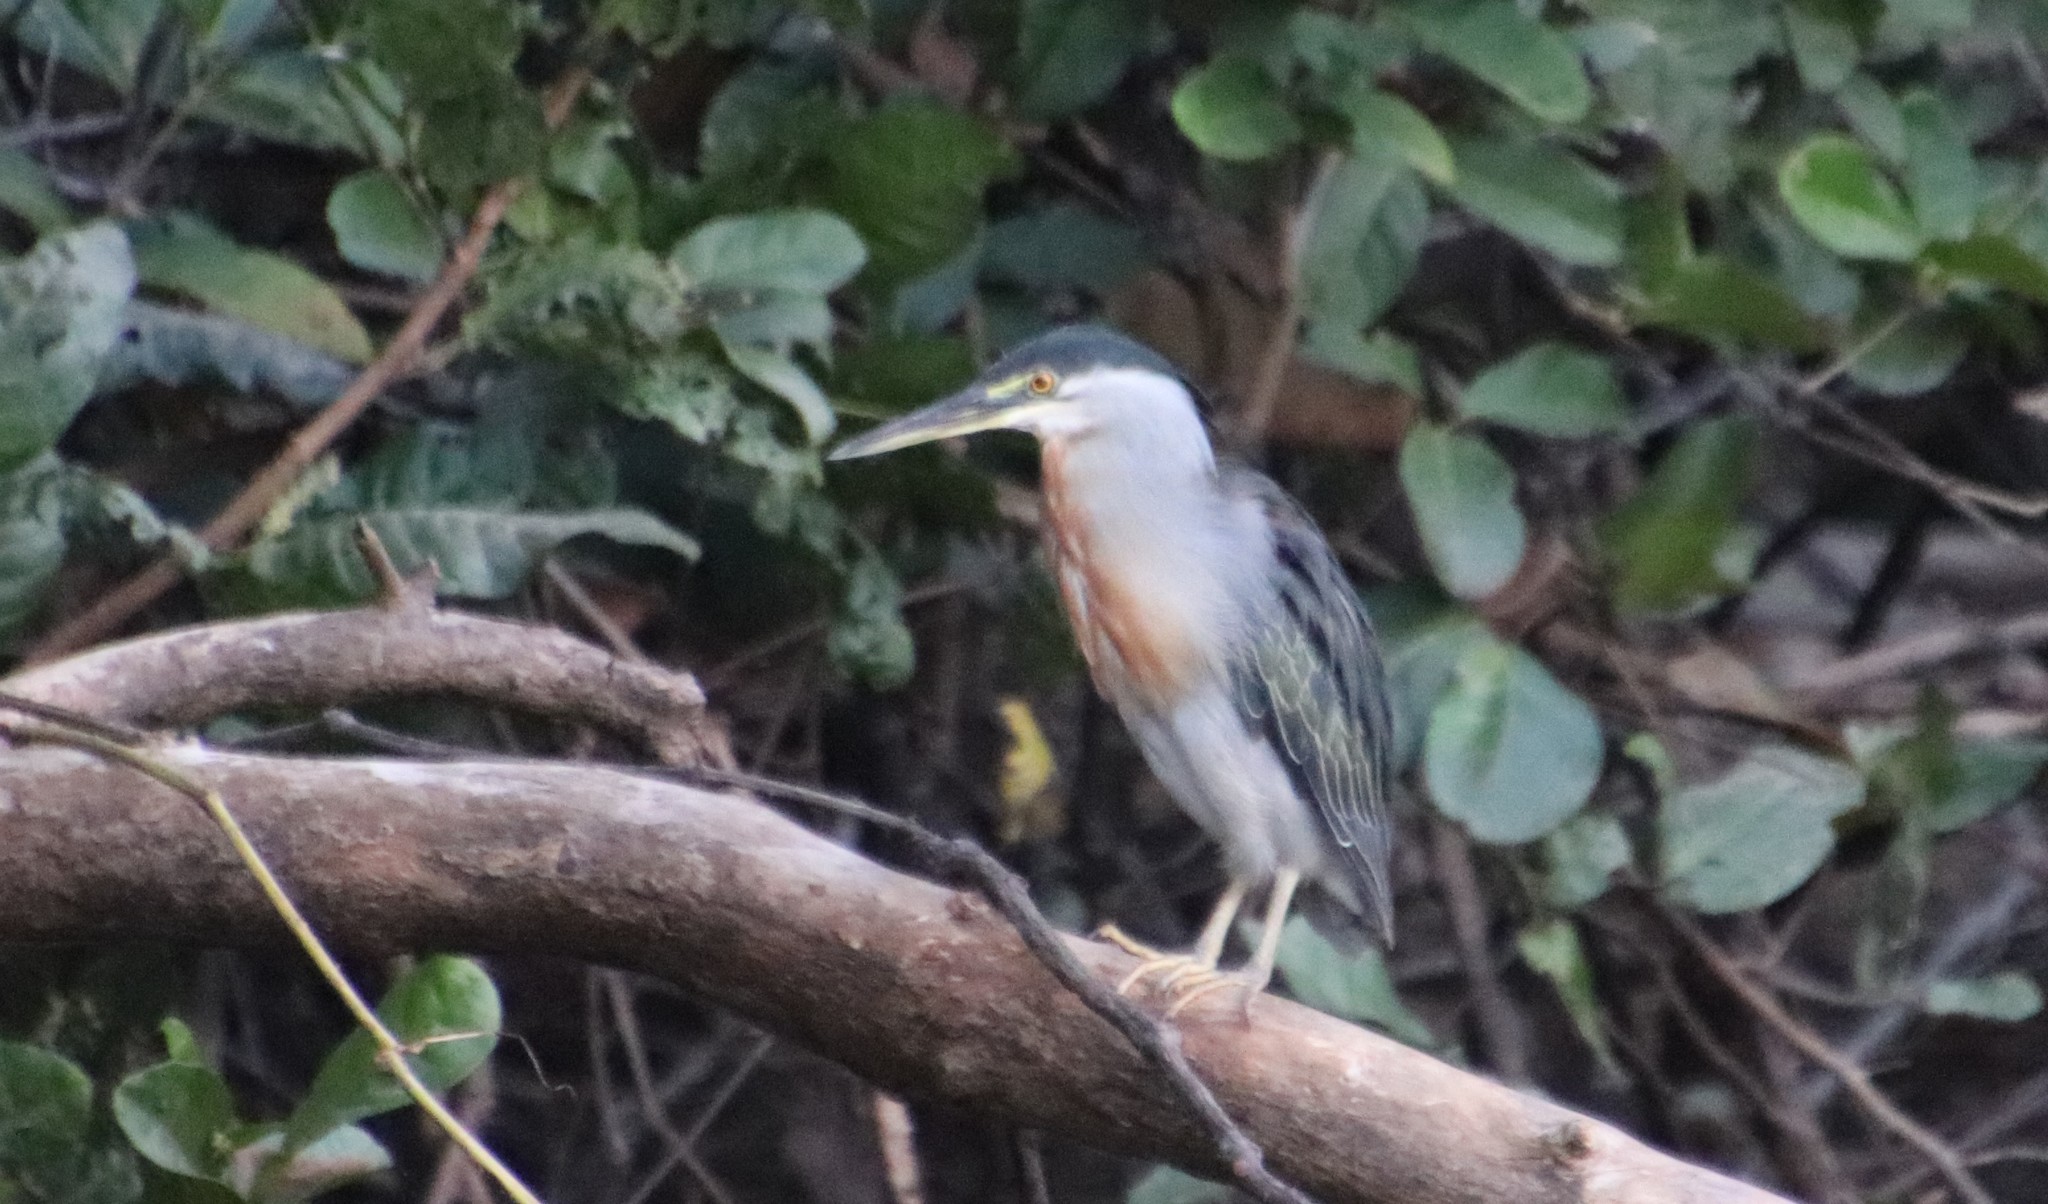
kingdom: Animalia
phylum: Chordata
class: Aves
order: Pelecaniformes
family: Ardeidae
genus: Butorides
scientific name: Butorides striata
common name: Striated heron
